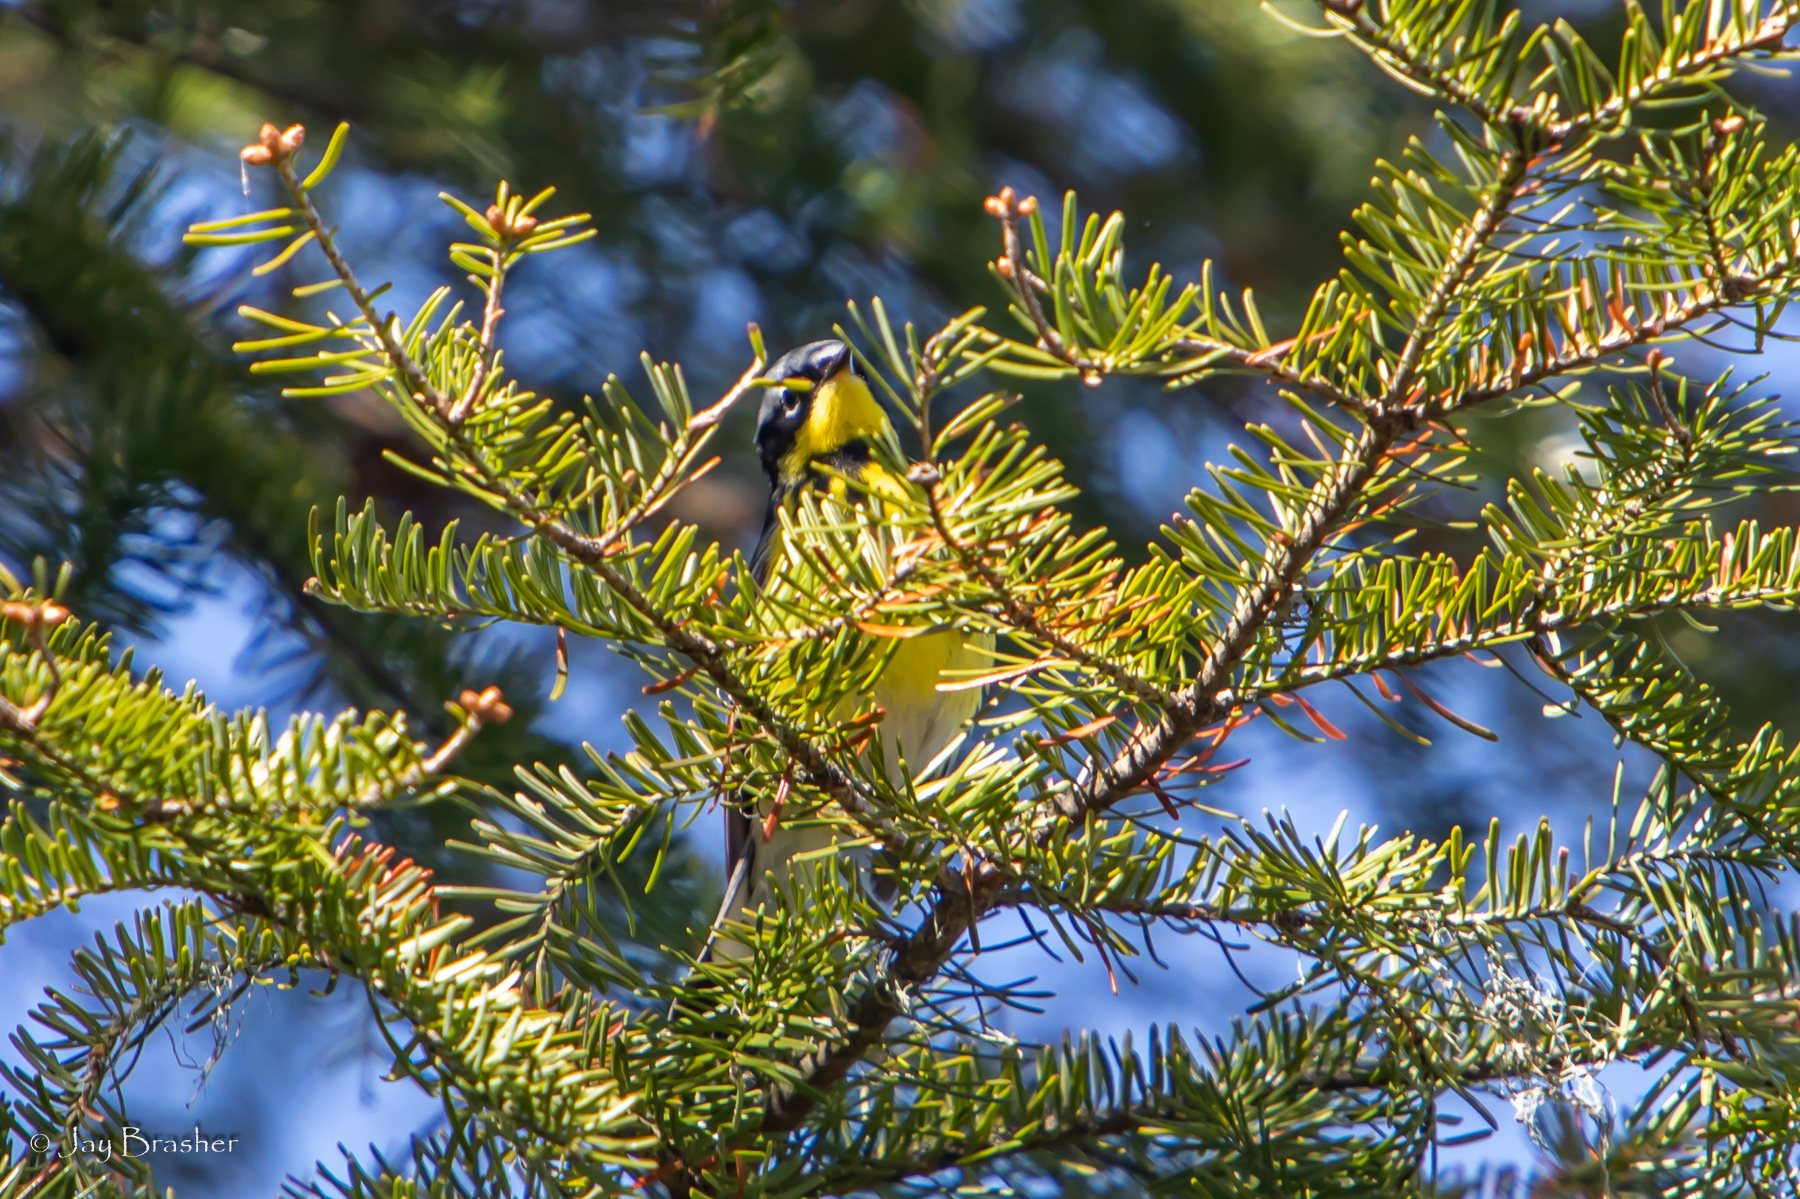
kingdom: Animalia
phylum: Chordata
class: Aves
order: Passeriformes
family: Parulidae
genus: Setophaga
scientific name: Setophaga magnolia
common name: Magnolia warbler
